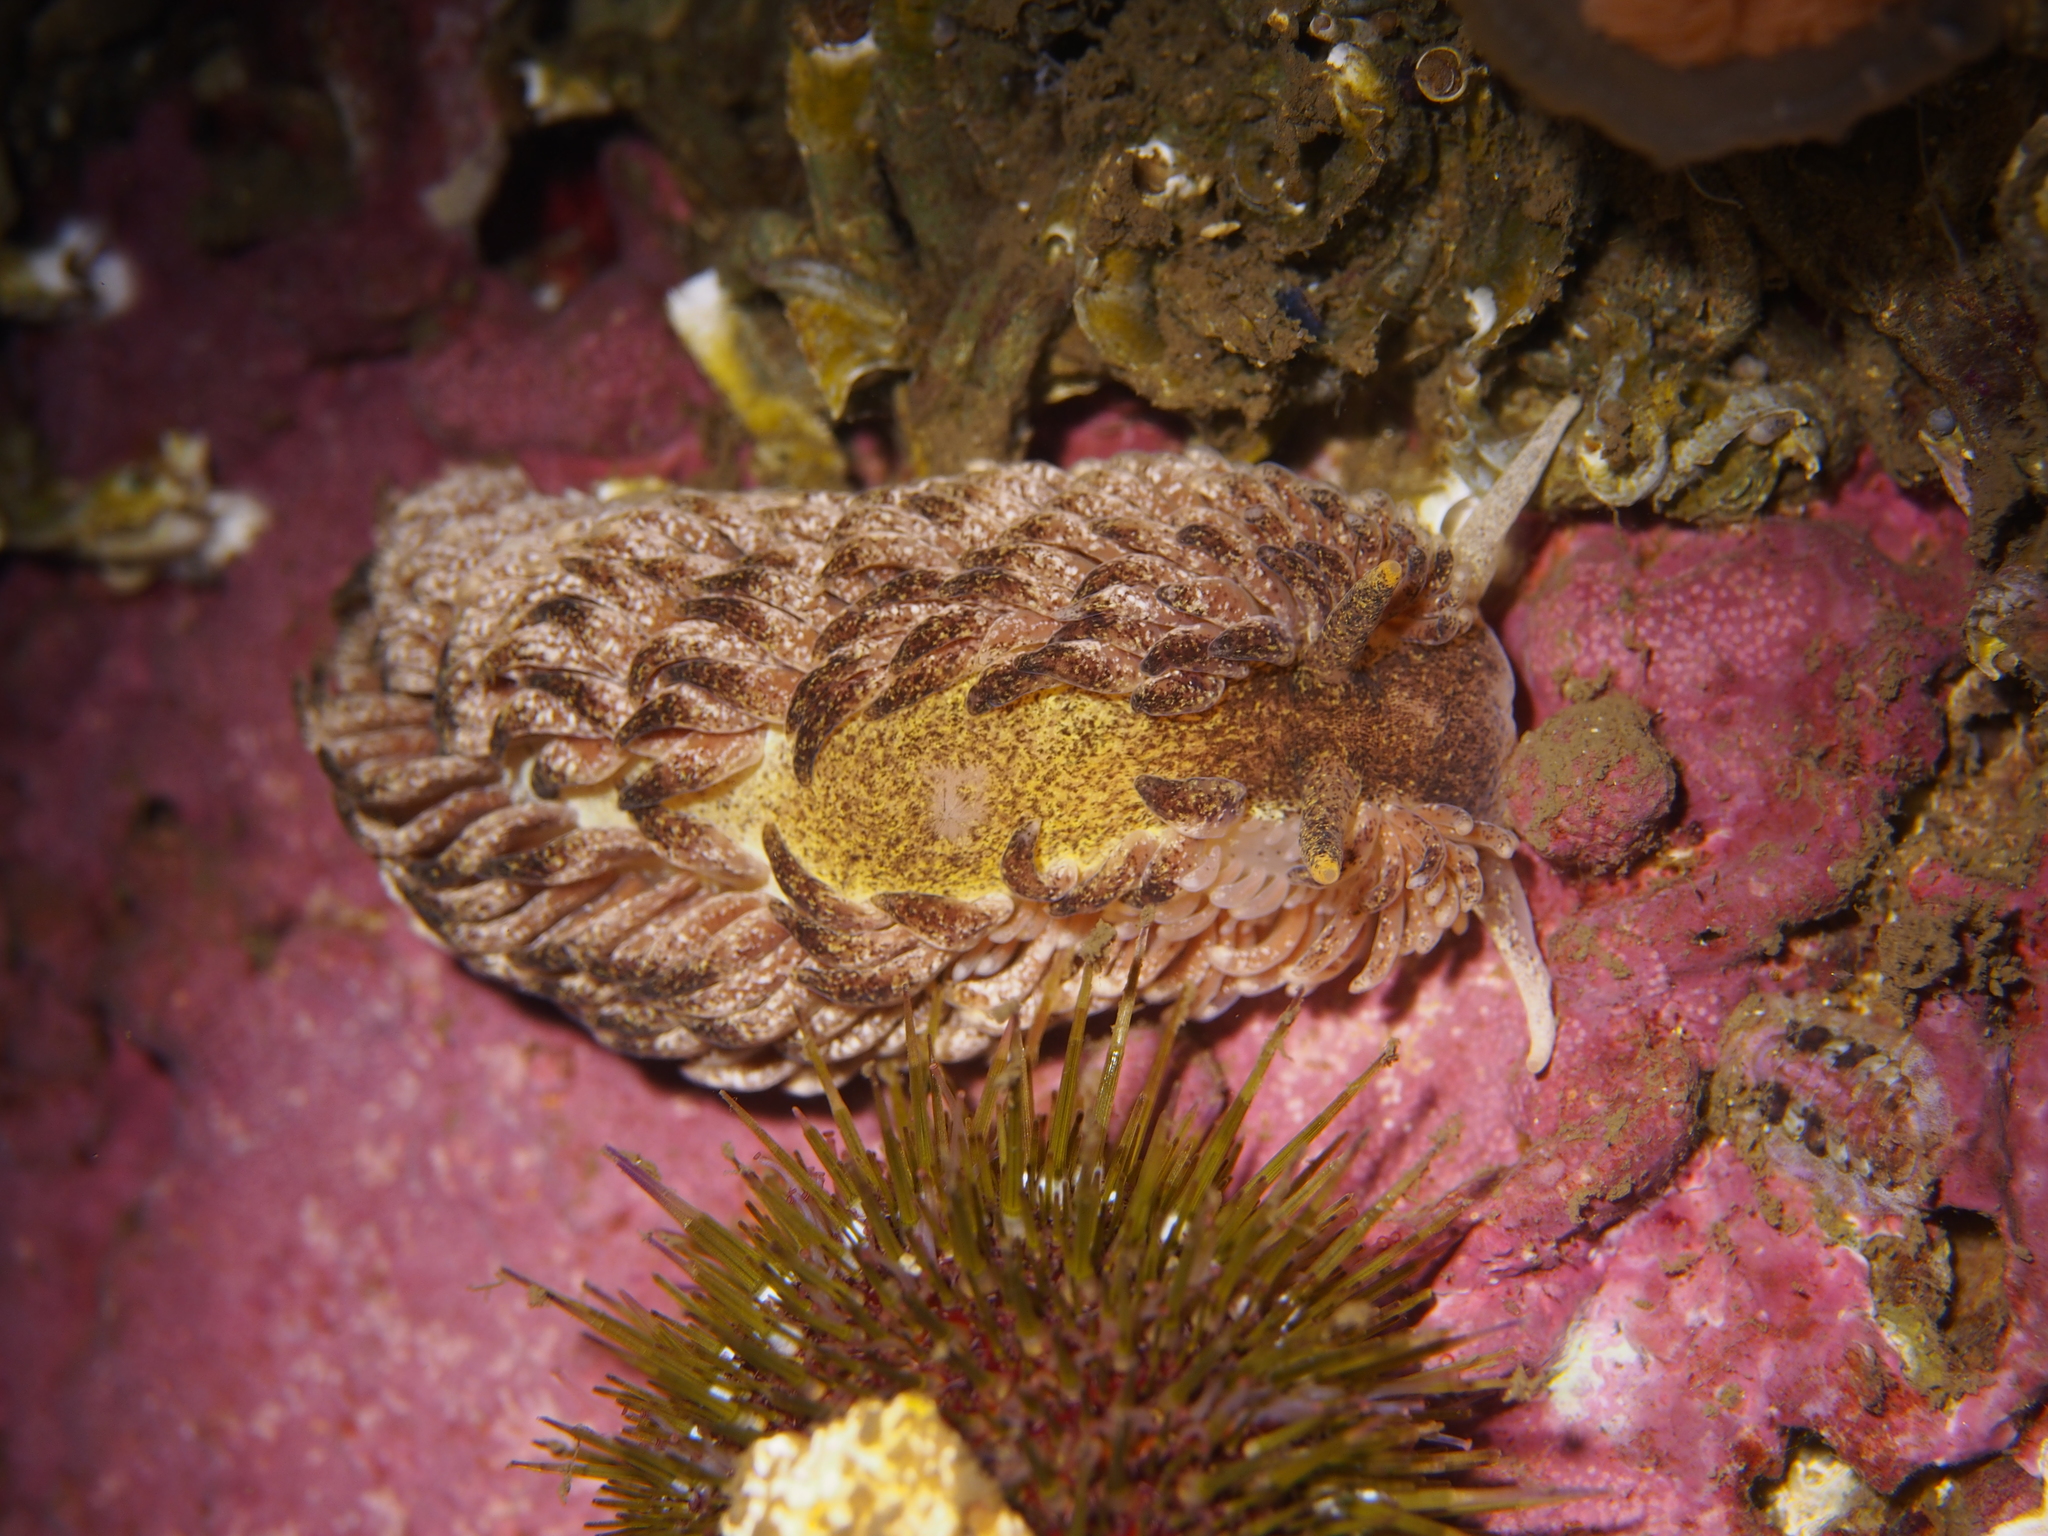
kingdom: Animalia
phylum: Mollusca
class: Gastropoda
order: Nudibranchia
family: Aeolidiidae
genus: Aeolidia
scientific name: Aeolidia papillosa
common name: Common grey sea slug
